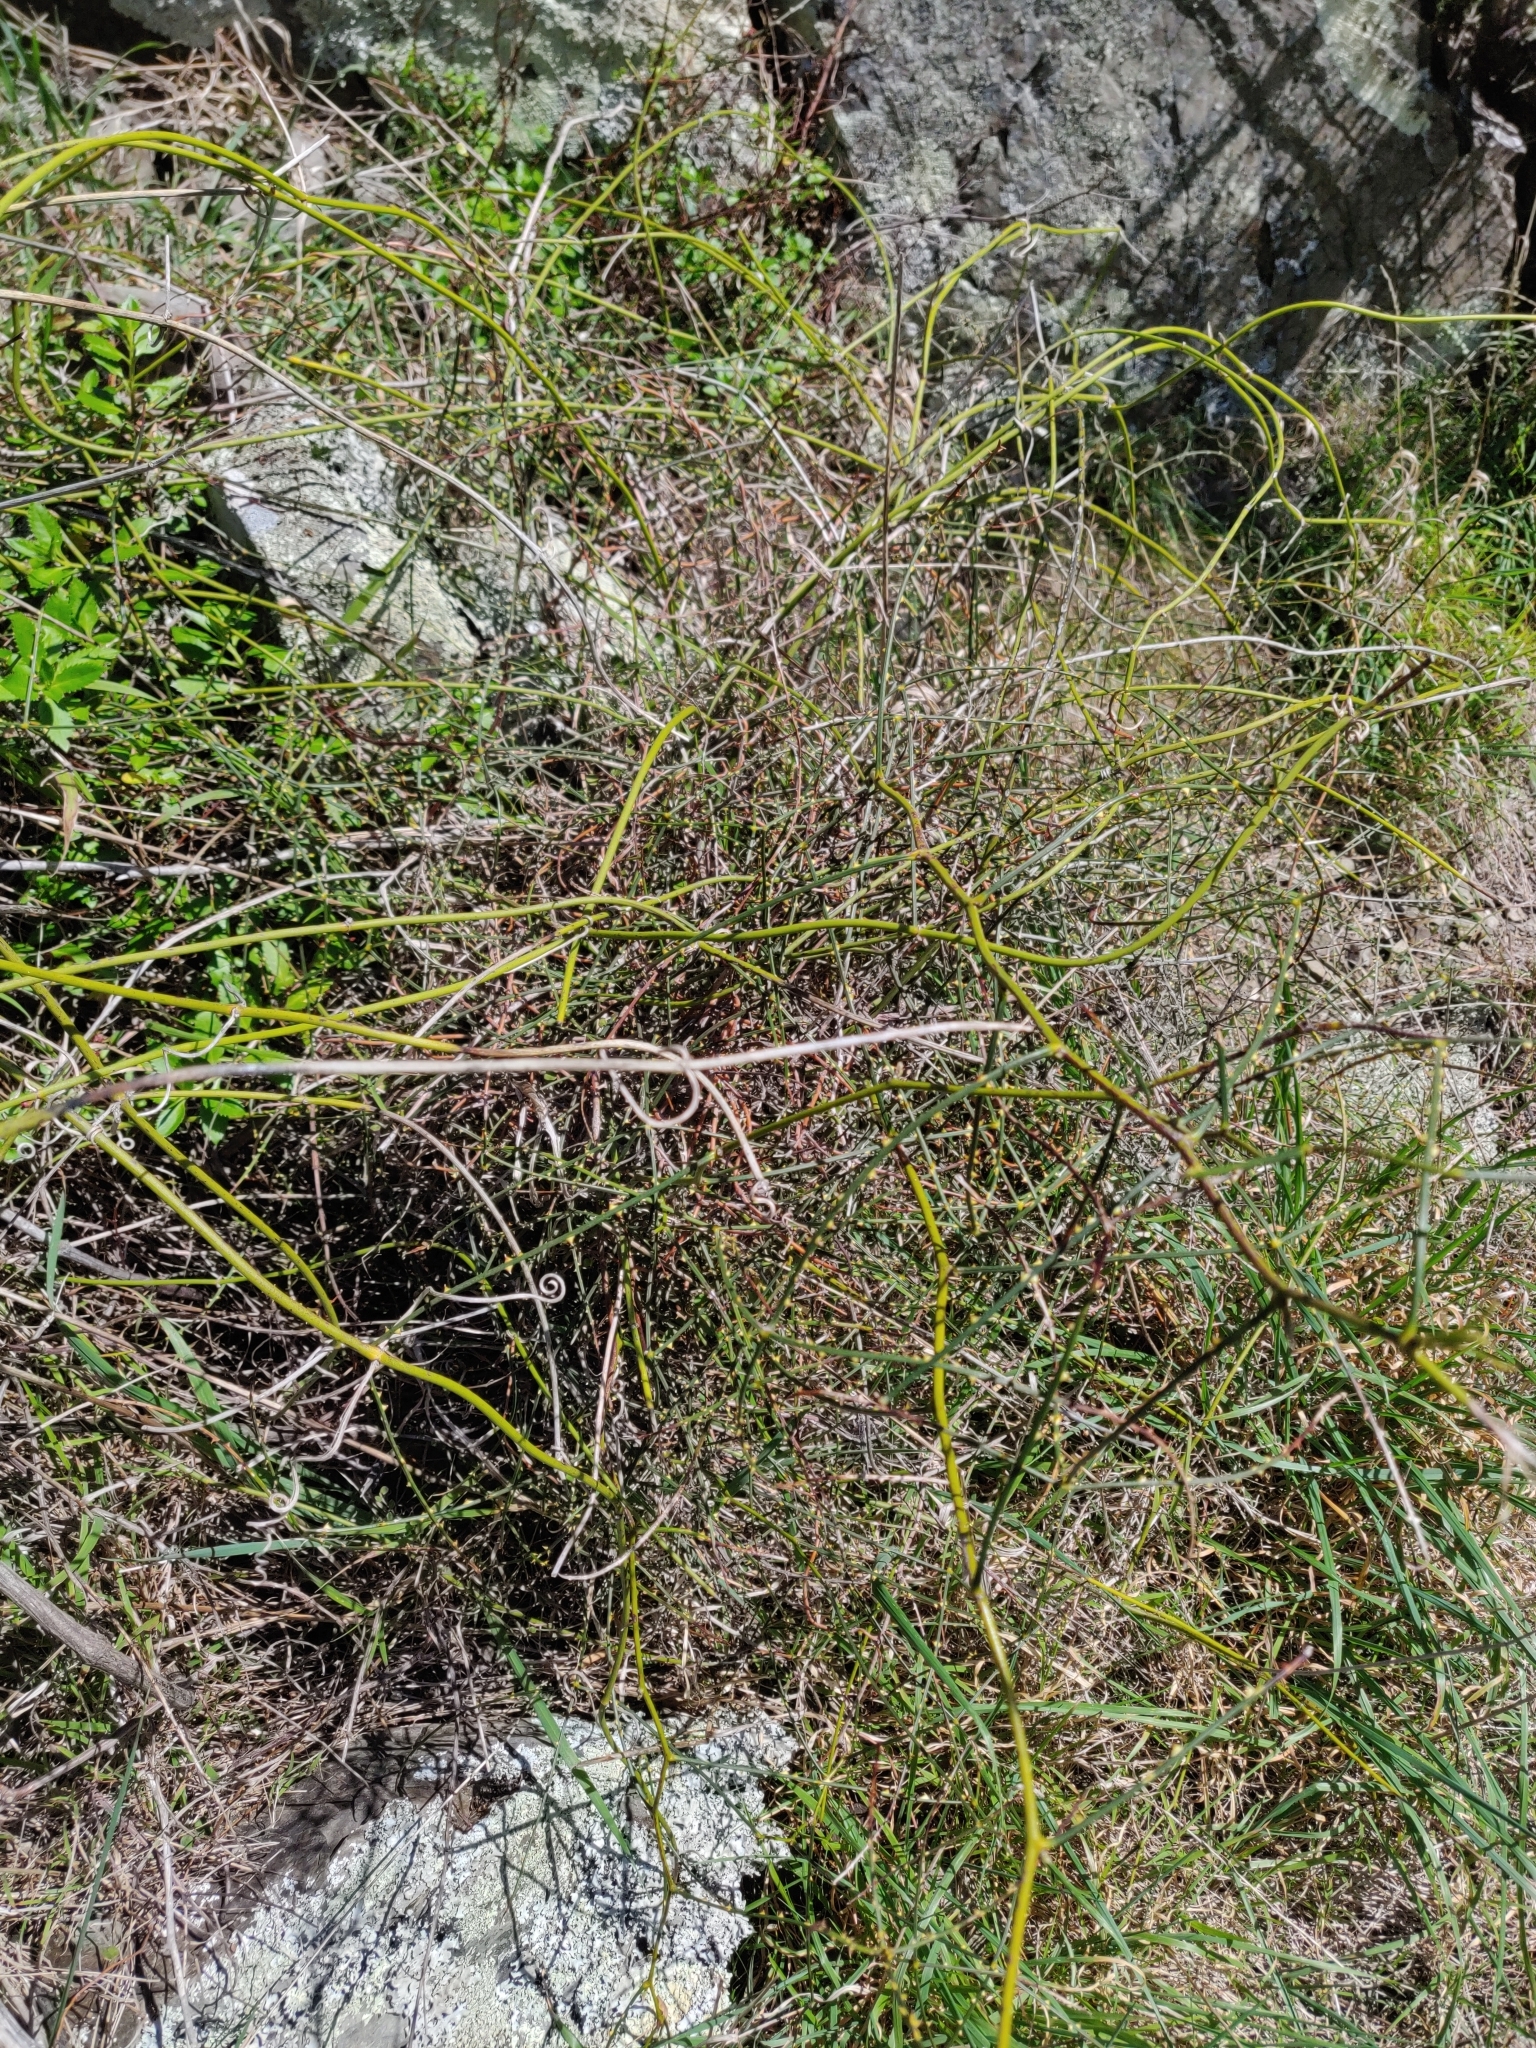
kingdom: Plantae
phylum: Tracheophyta
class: Magnoliopsida
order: Rosales
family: Rosaceae
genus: Rubus
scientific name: Rubus squarrosus
